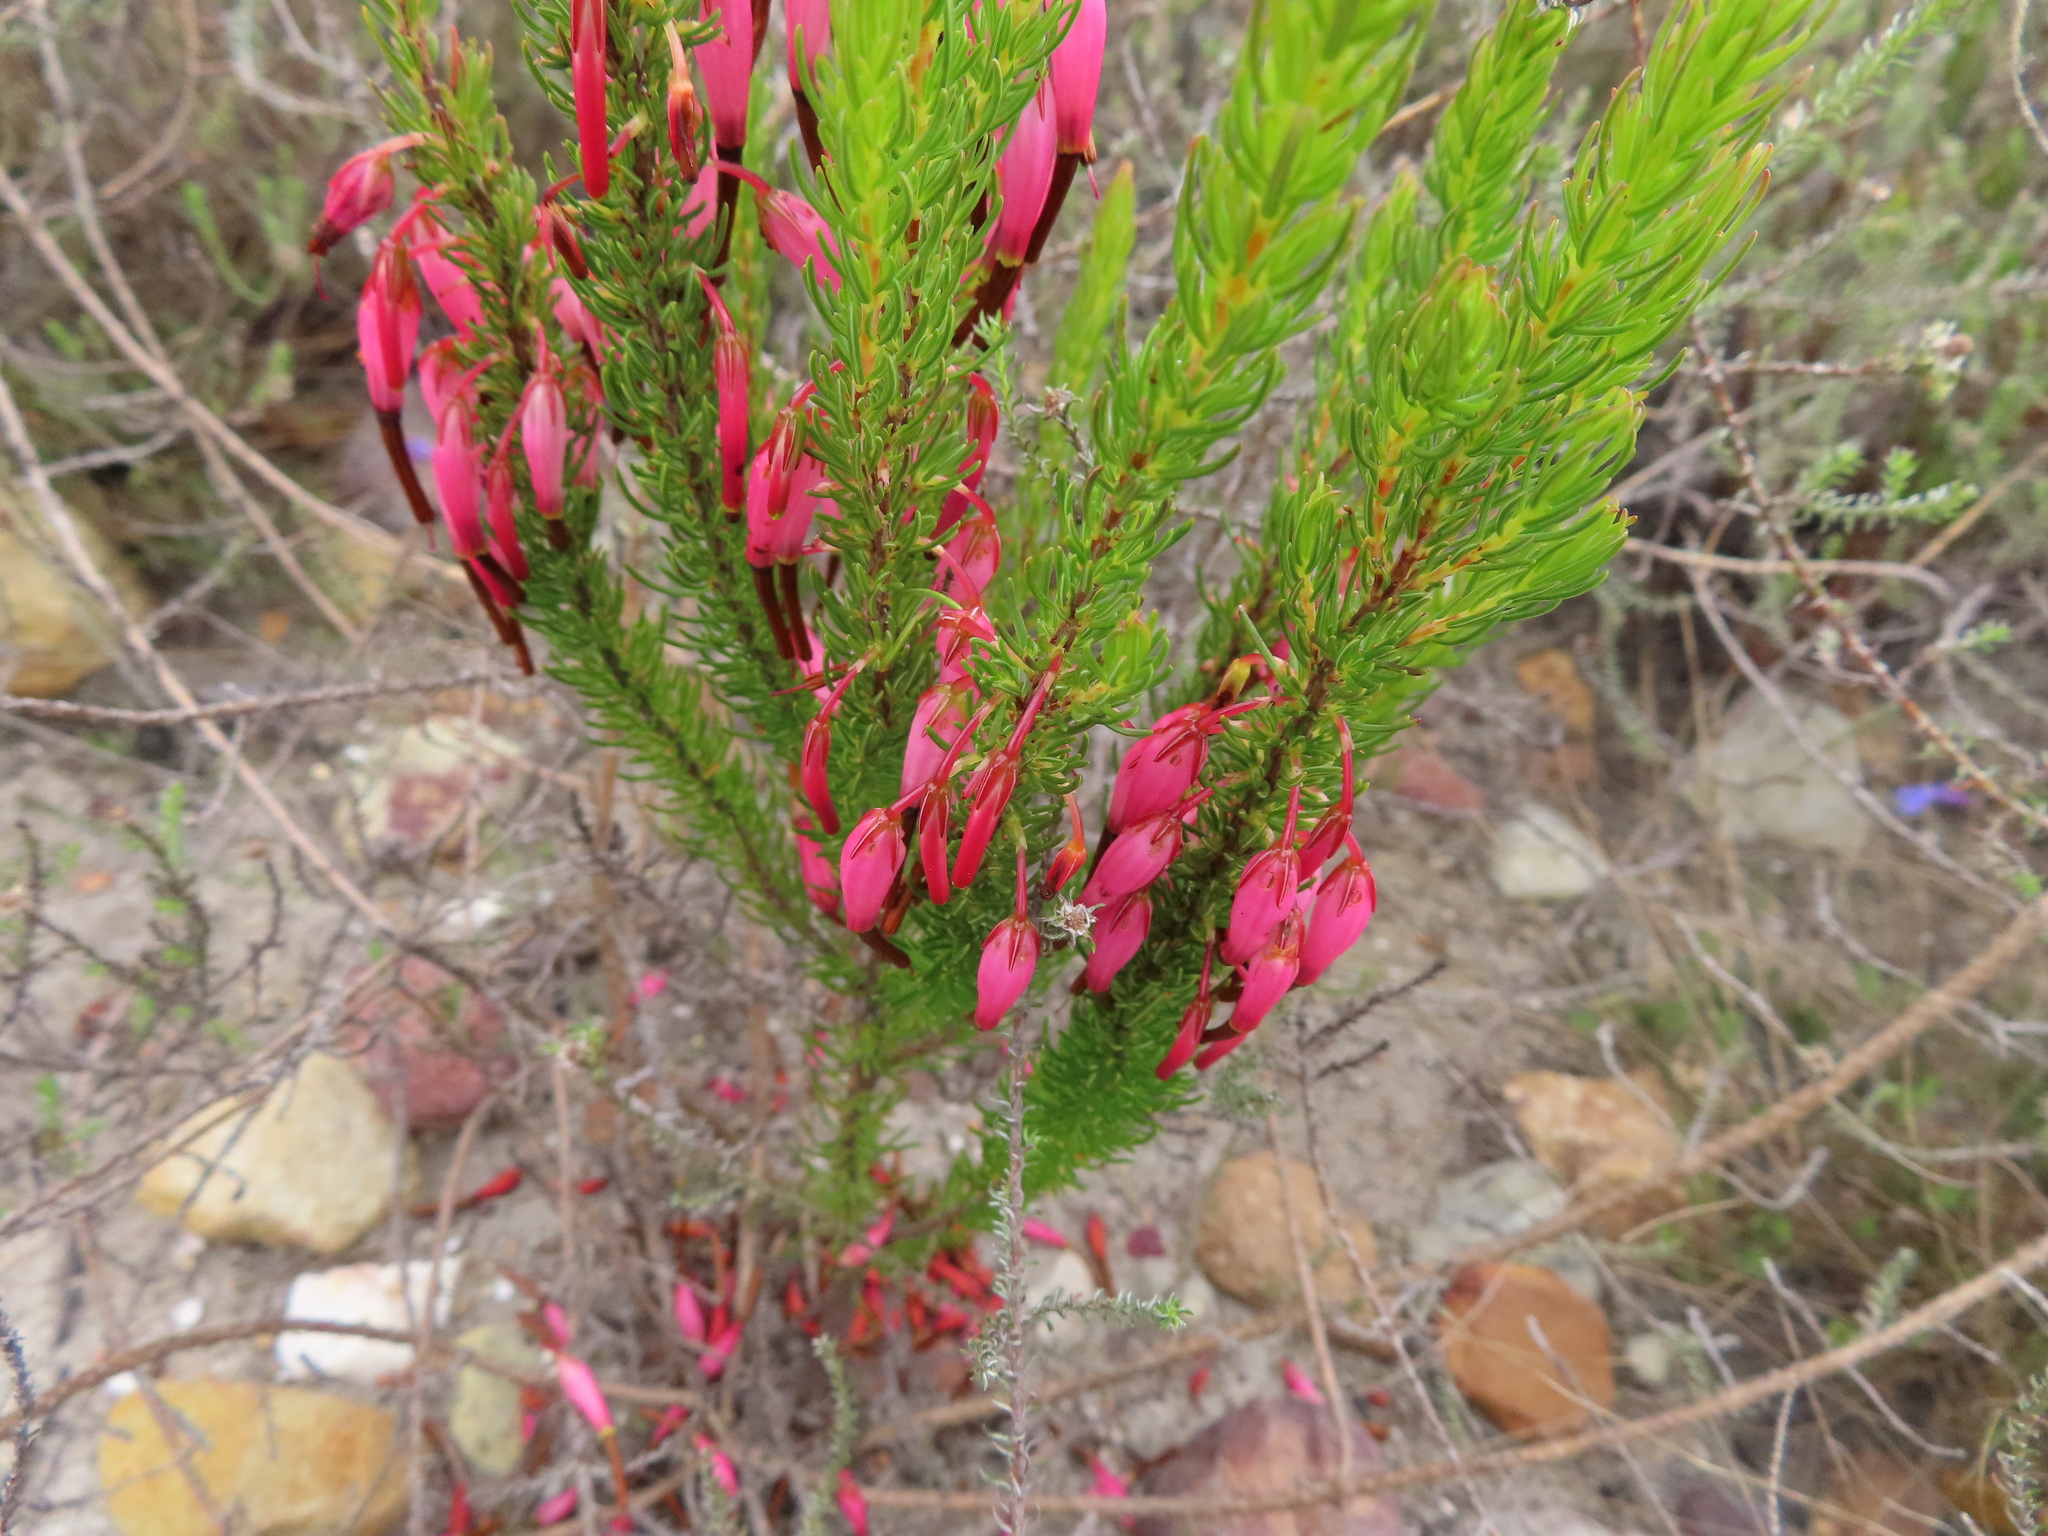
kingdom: Plantae
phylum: Tracheophyta
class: Magnoliopsida
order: Ericales
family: Ericaceae
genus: Erica
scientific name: Erica plukenetii
